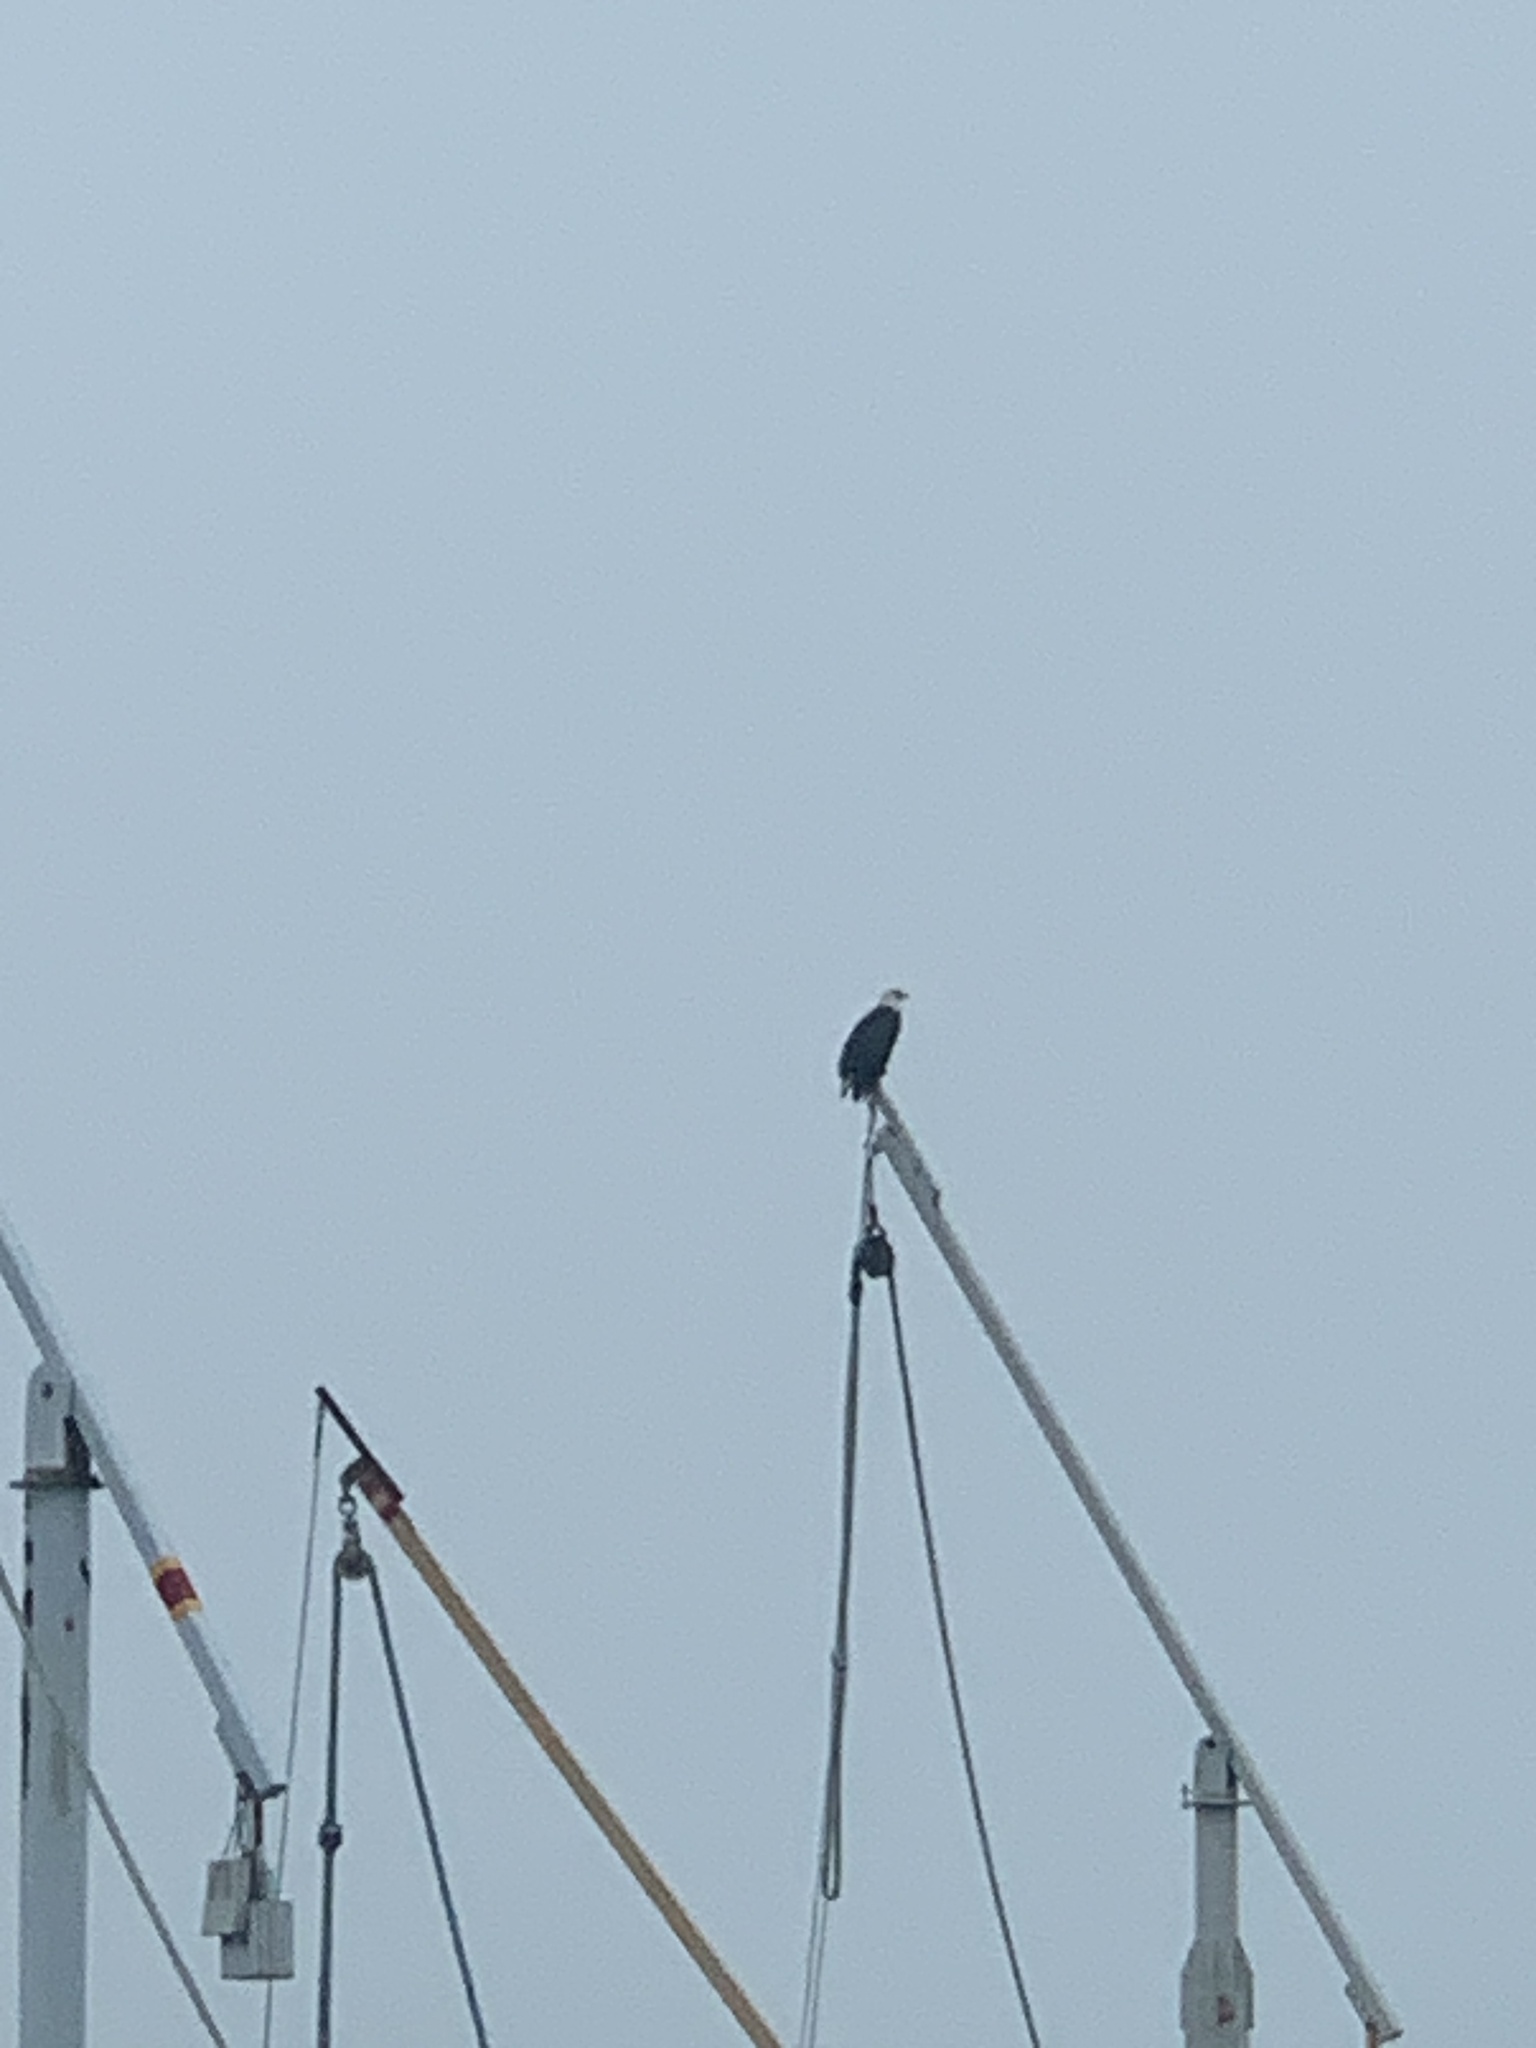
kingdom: Animalia
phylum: Chordata
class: Aves
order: Accipitriformes
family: Accipitridae
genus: Haliaeetus
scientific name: Haliaeetus leucocephalus
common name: Bald eagle
